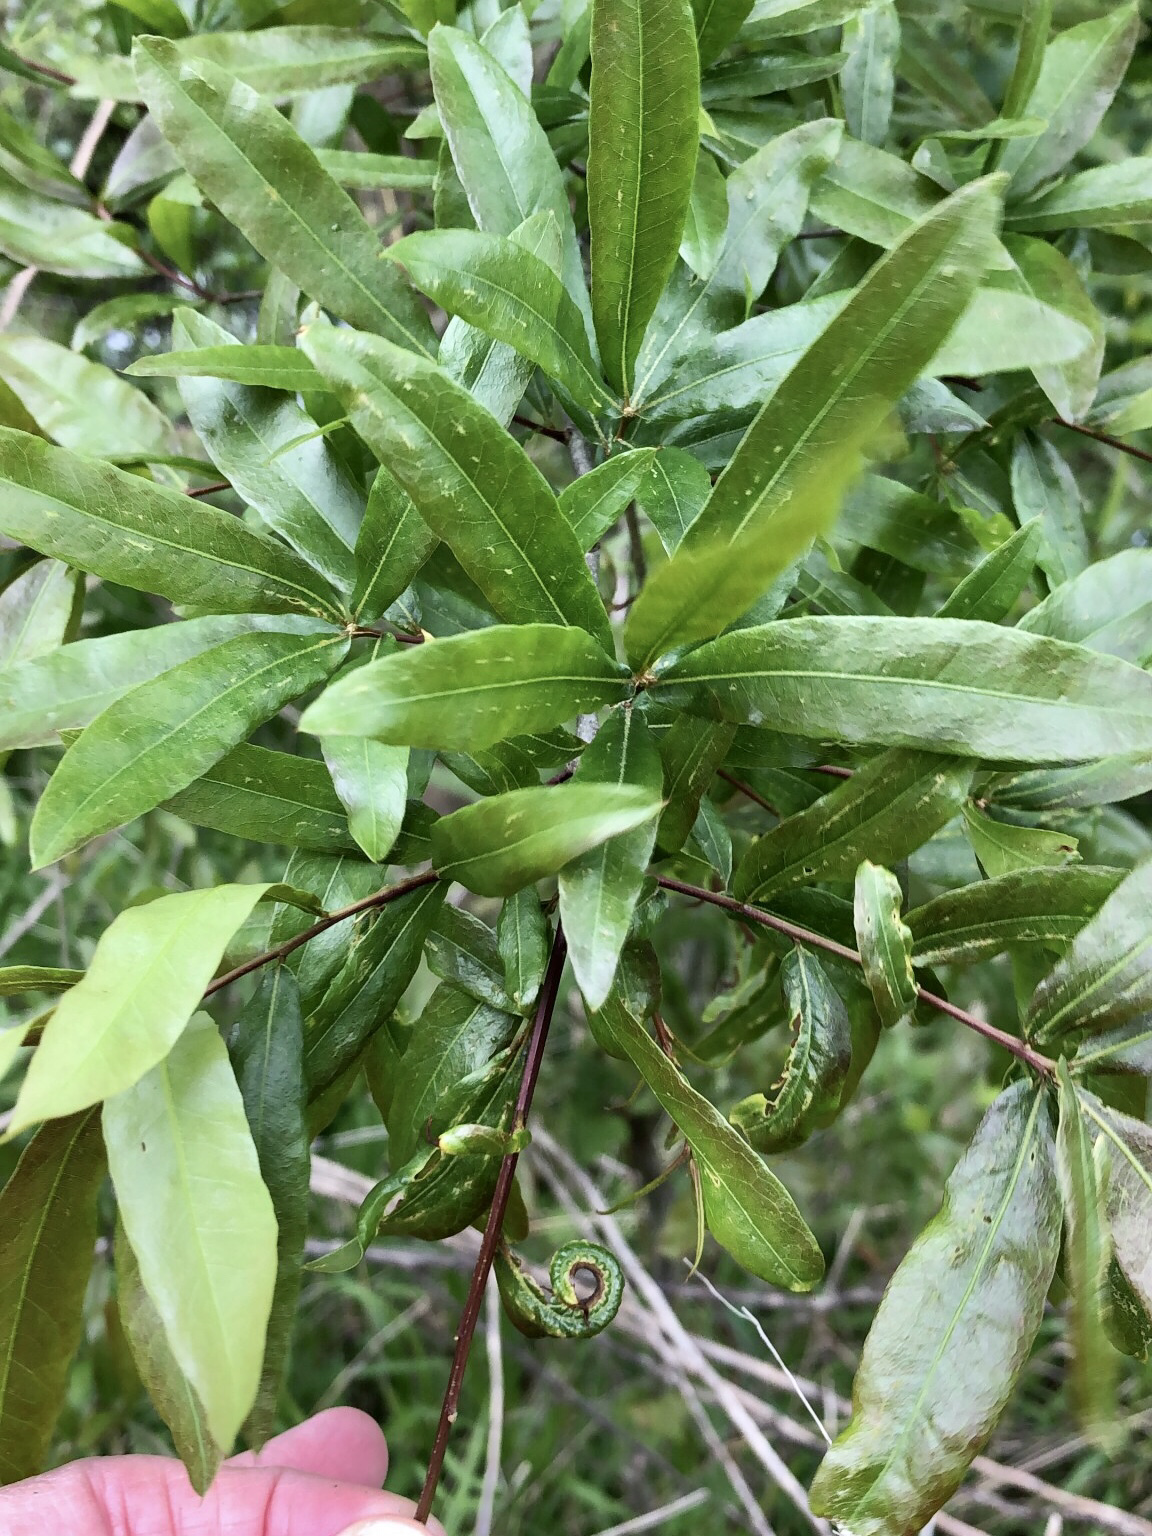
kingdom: Plantae
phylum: Tracheophyta
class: Magnoliopsida
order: Fagales
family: Fagaceae
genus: Quercus
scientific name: Quercus phellos
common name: Willow oak
